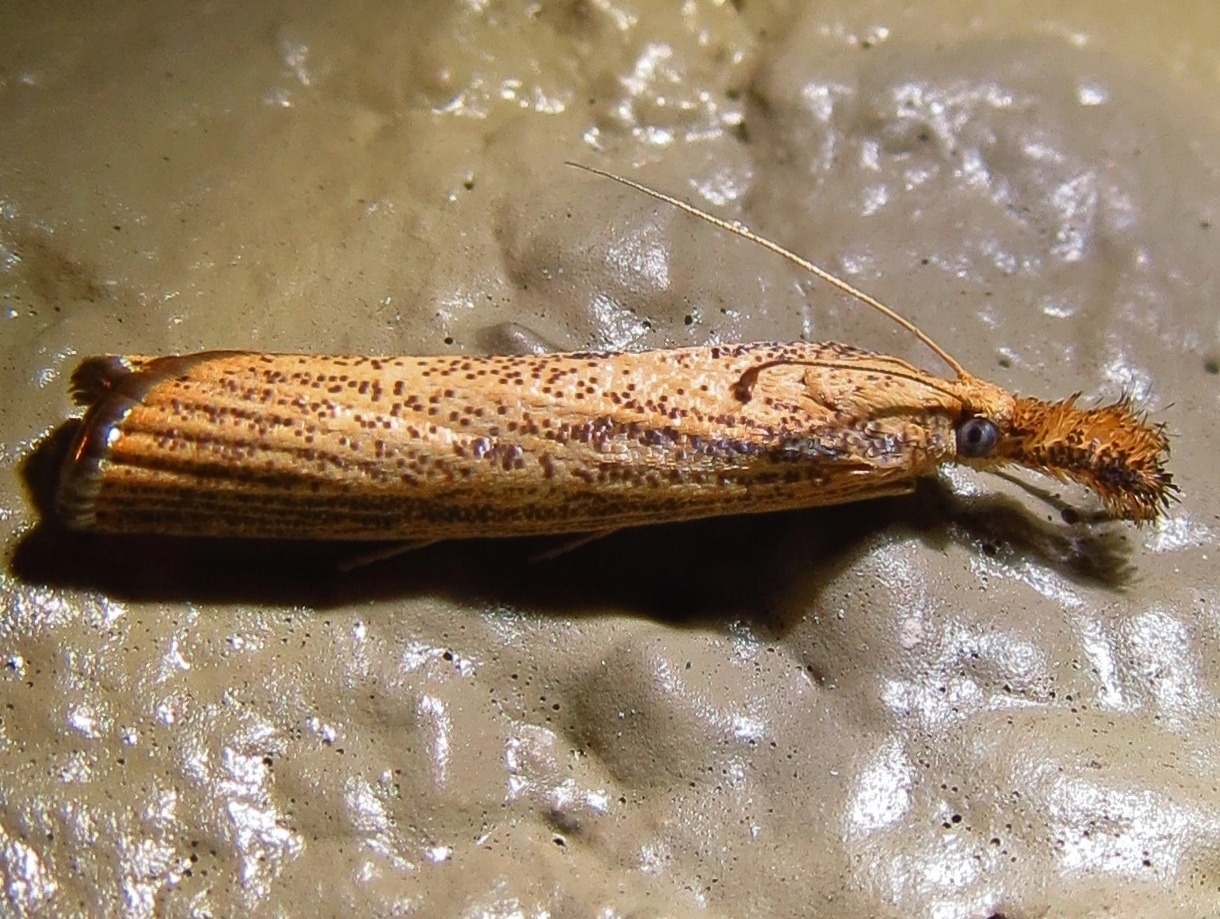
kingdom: Animalia
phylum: Arthropoda
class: Insecta
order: Lepidoptera
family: Crambidae
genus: Agriphila
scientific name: Agriphila vulgivagellus
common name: Vagabond crambus moth
